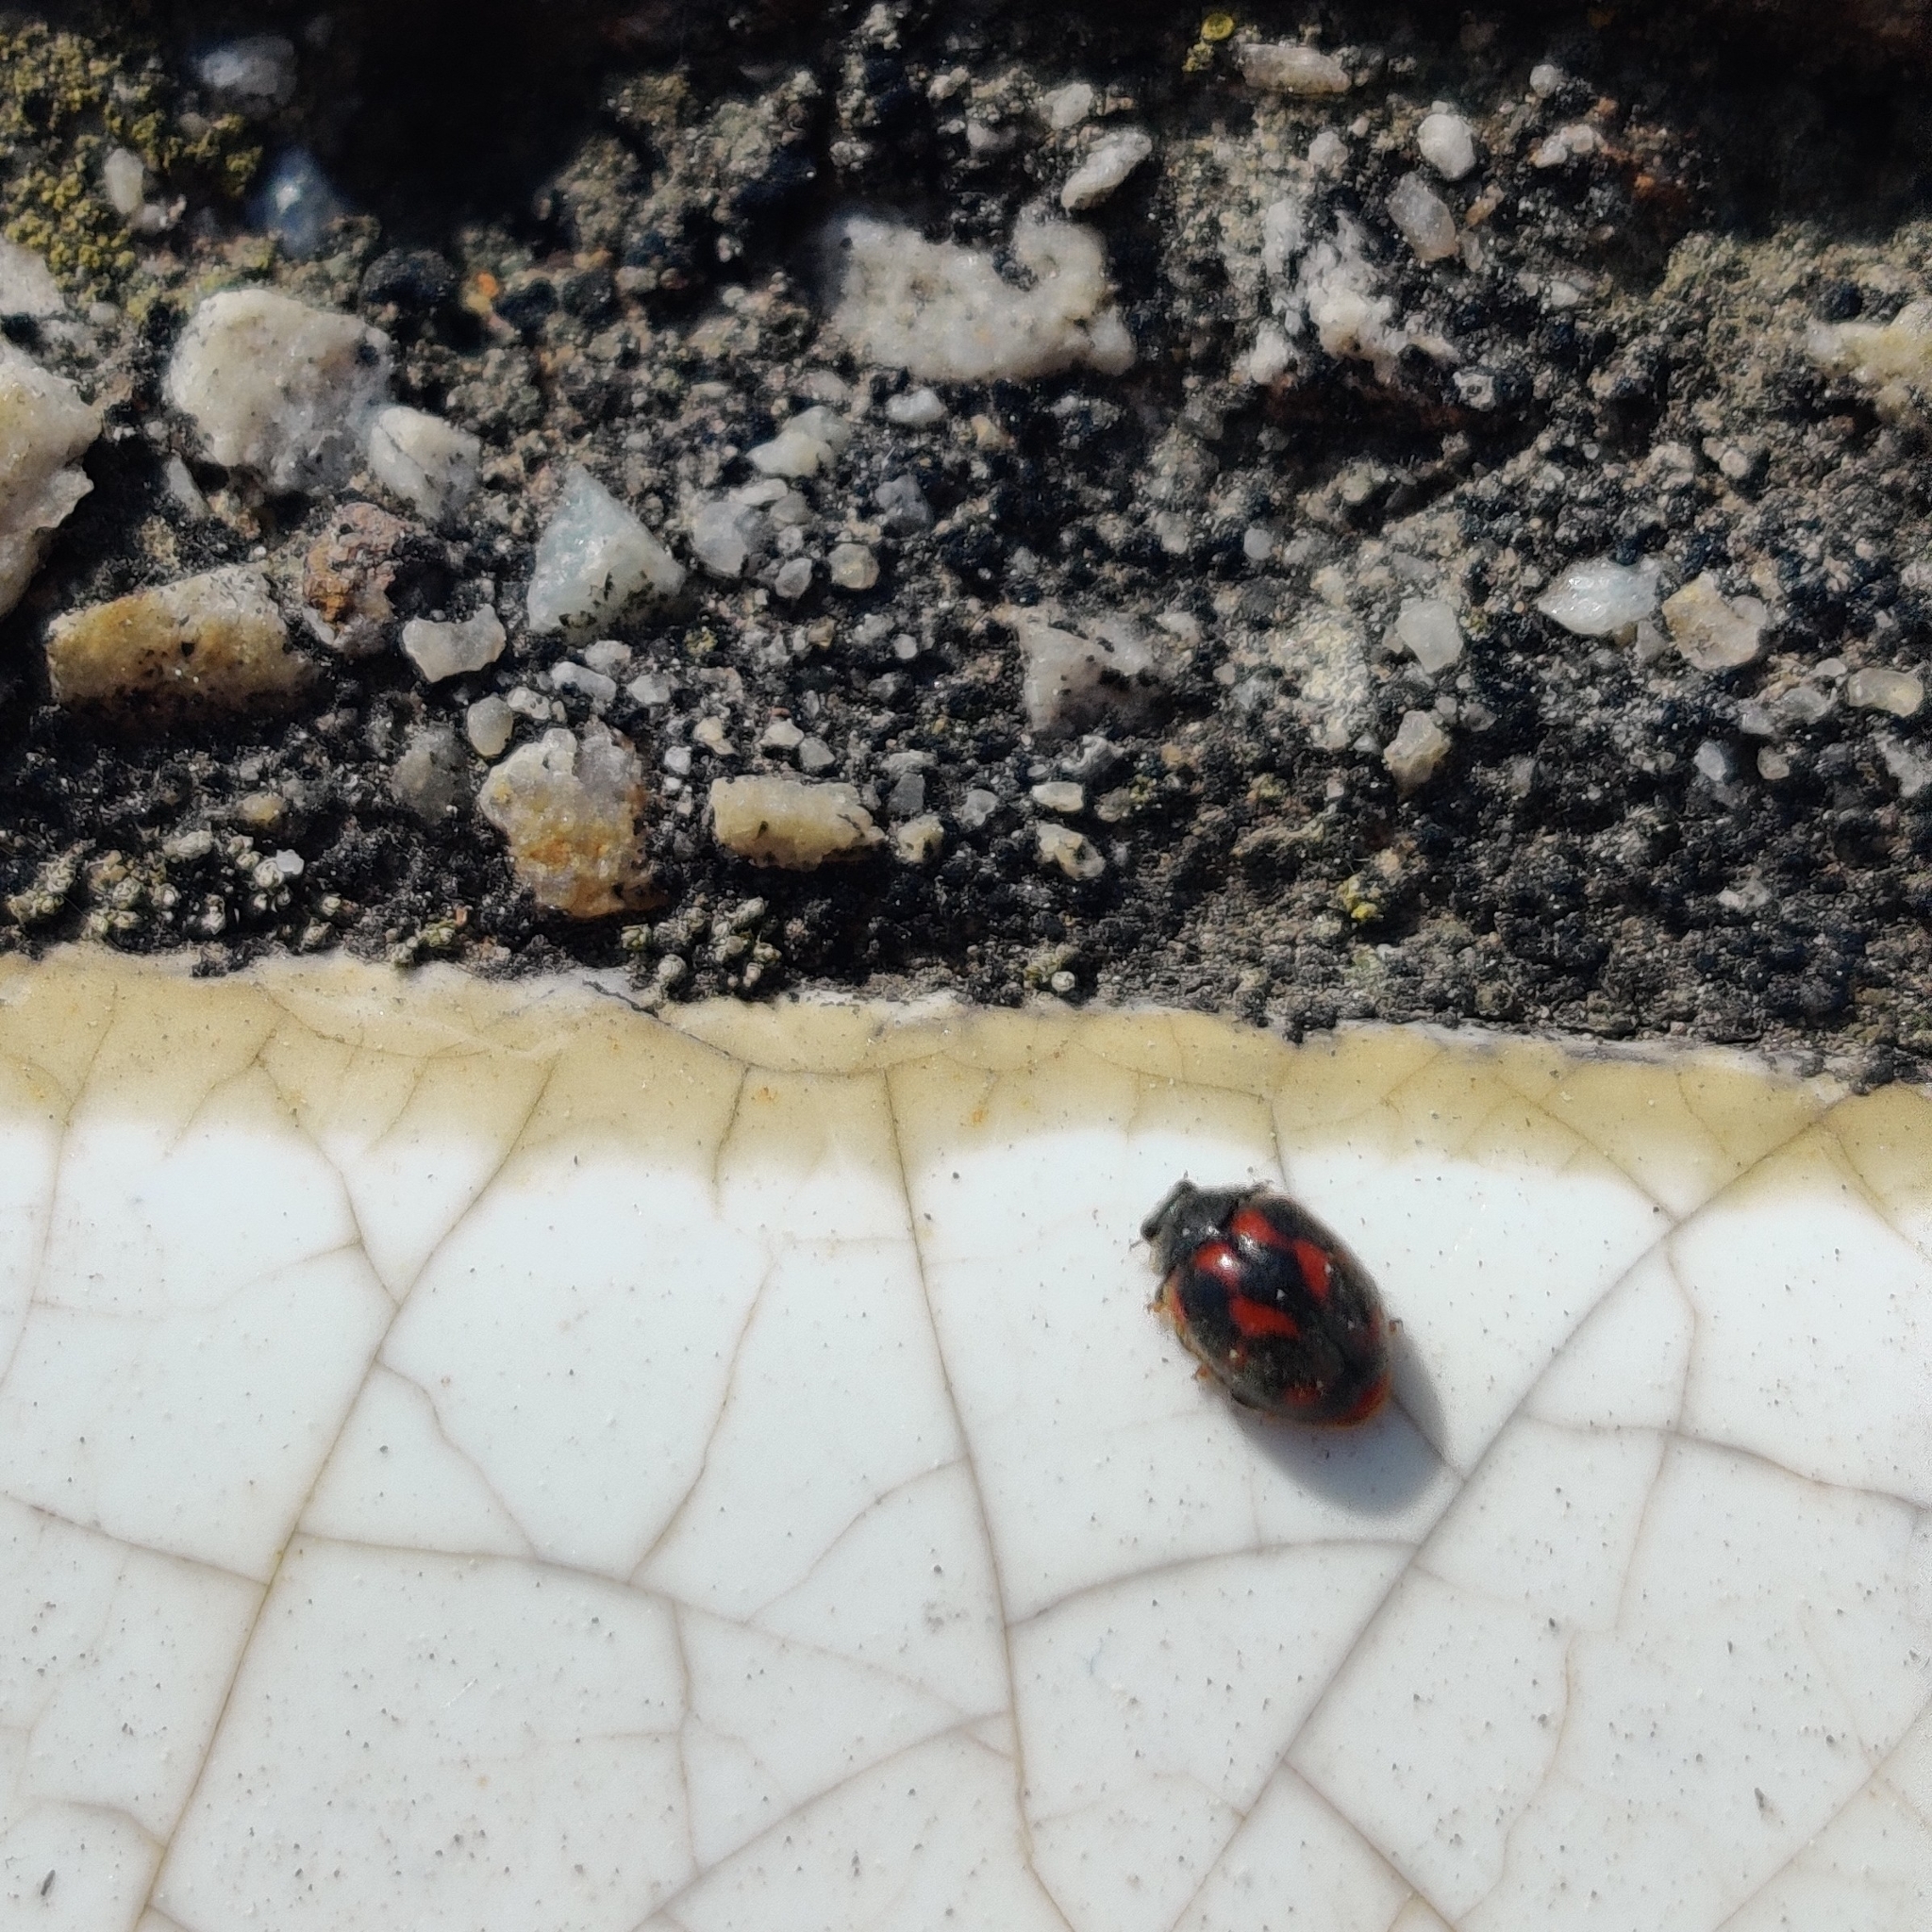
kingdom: Animalia
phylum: Arthropoda
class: Insecta
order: Coleoptera
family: Coccinellidae
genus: Novius
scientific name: Novius cardinalis
